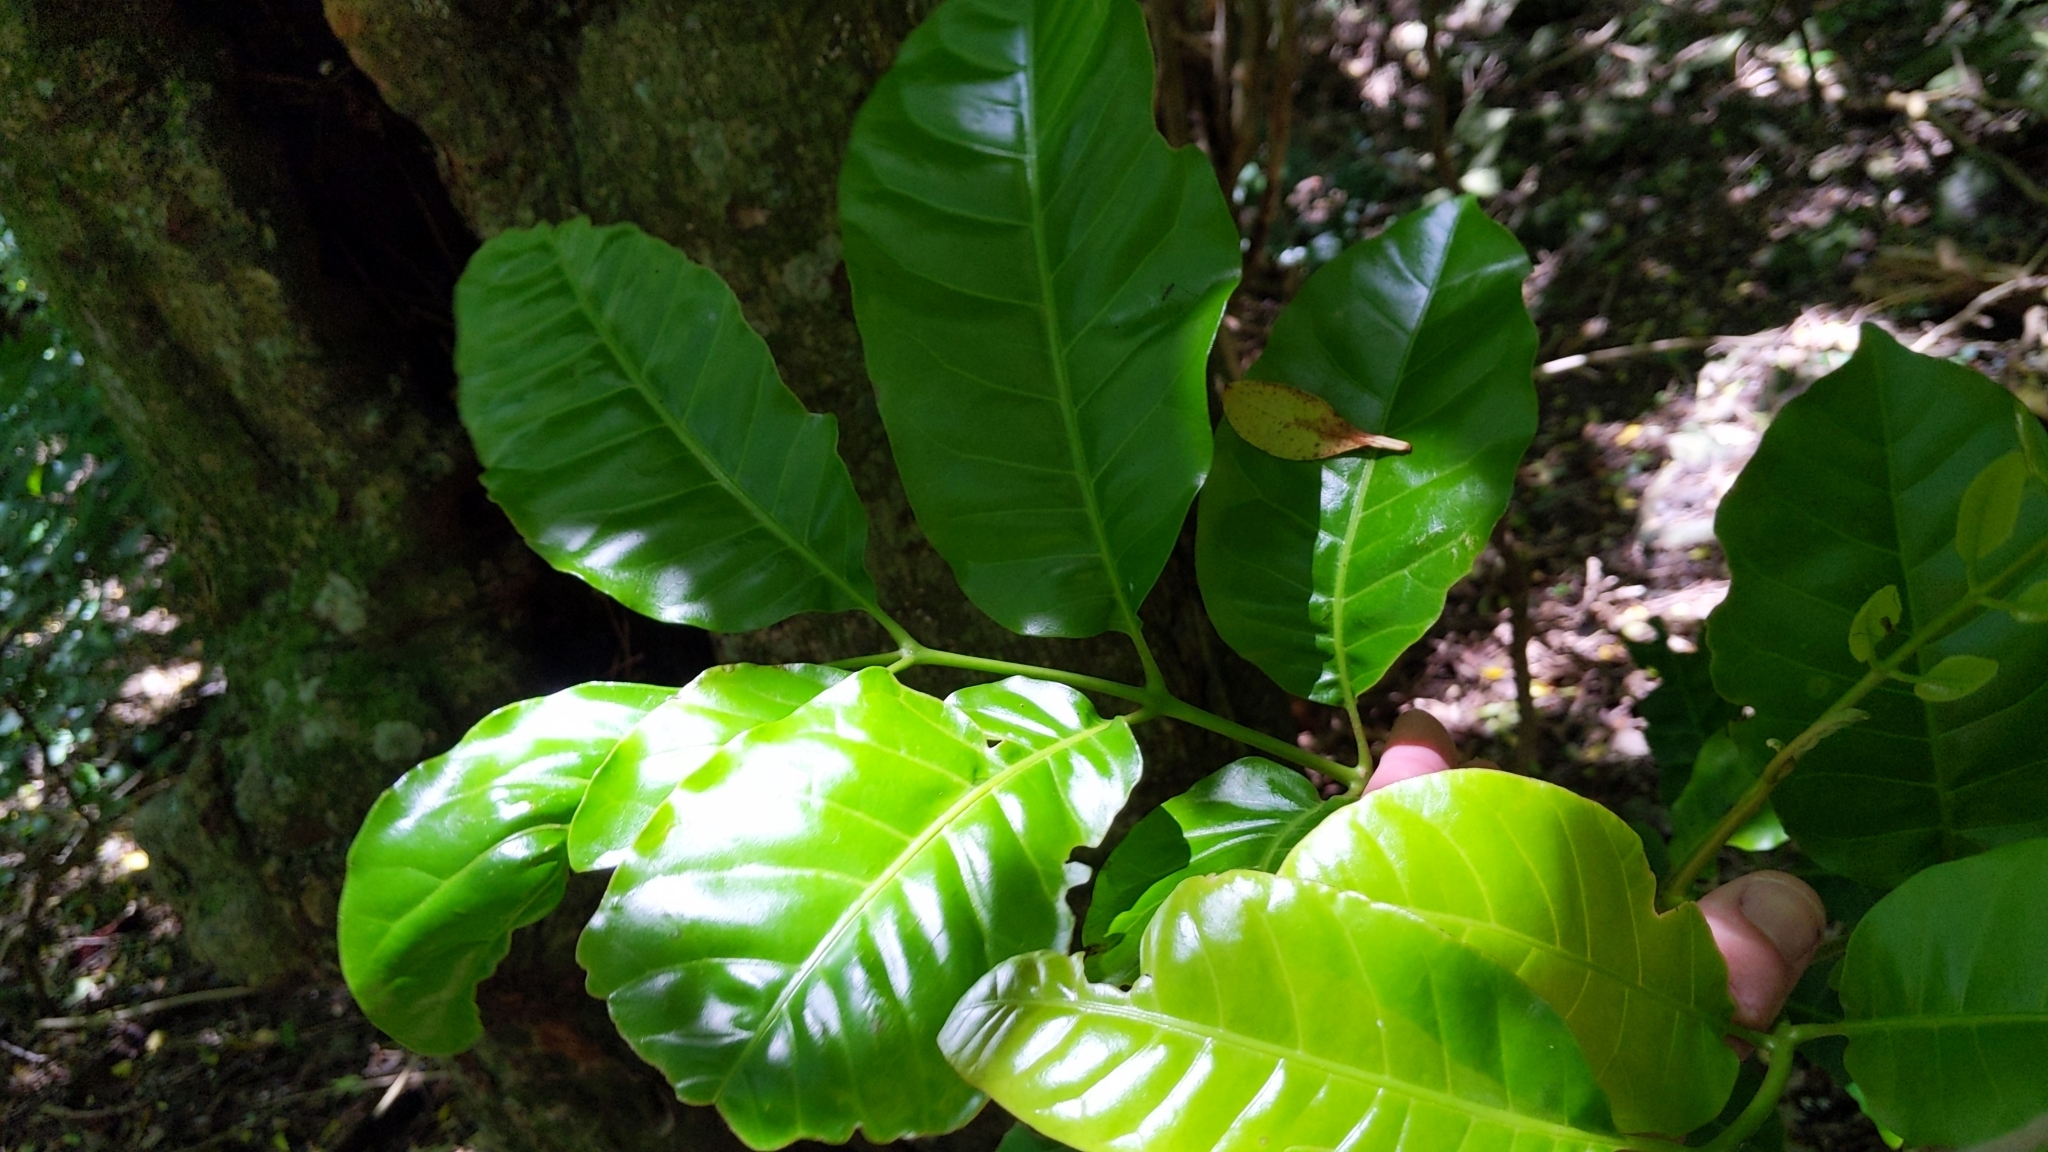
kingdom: Plantae
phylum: Tracheophyta
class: Magnoliopsida
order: Sapindales
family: Meliaceae
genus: Didymocheton
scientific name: Didymocheton spectabilis
